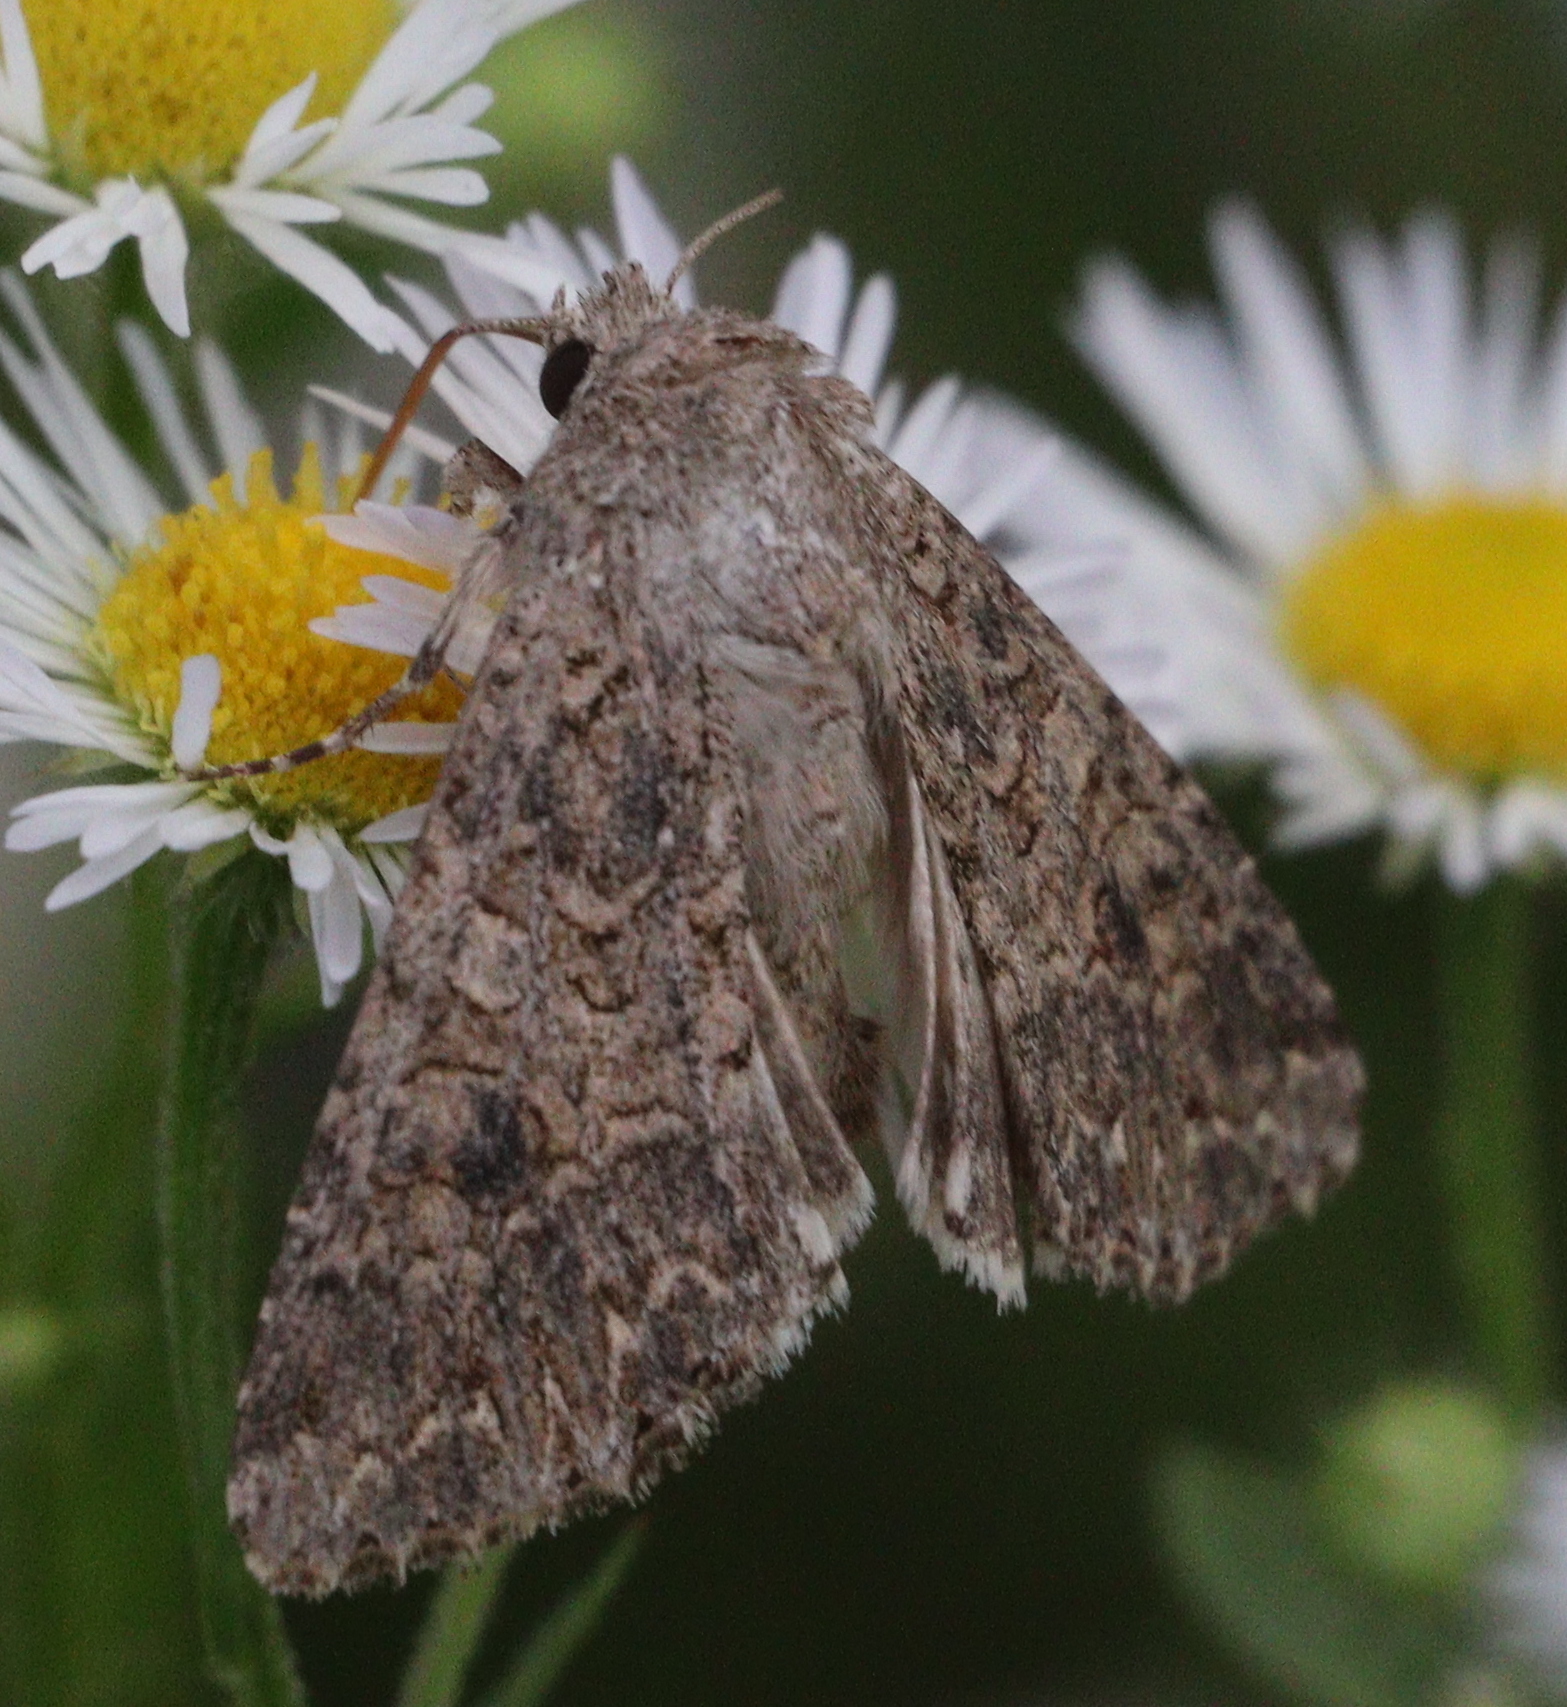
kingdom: Animalia
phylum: Arthropoda
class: Insecta
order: Lepidoptera
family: Noctuidae
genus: Anarta
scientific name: Anarta trifolii
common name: Clover cutworm moth
